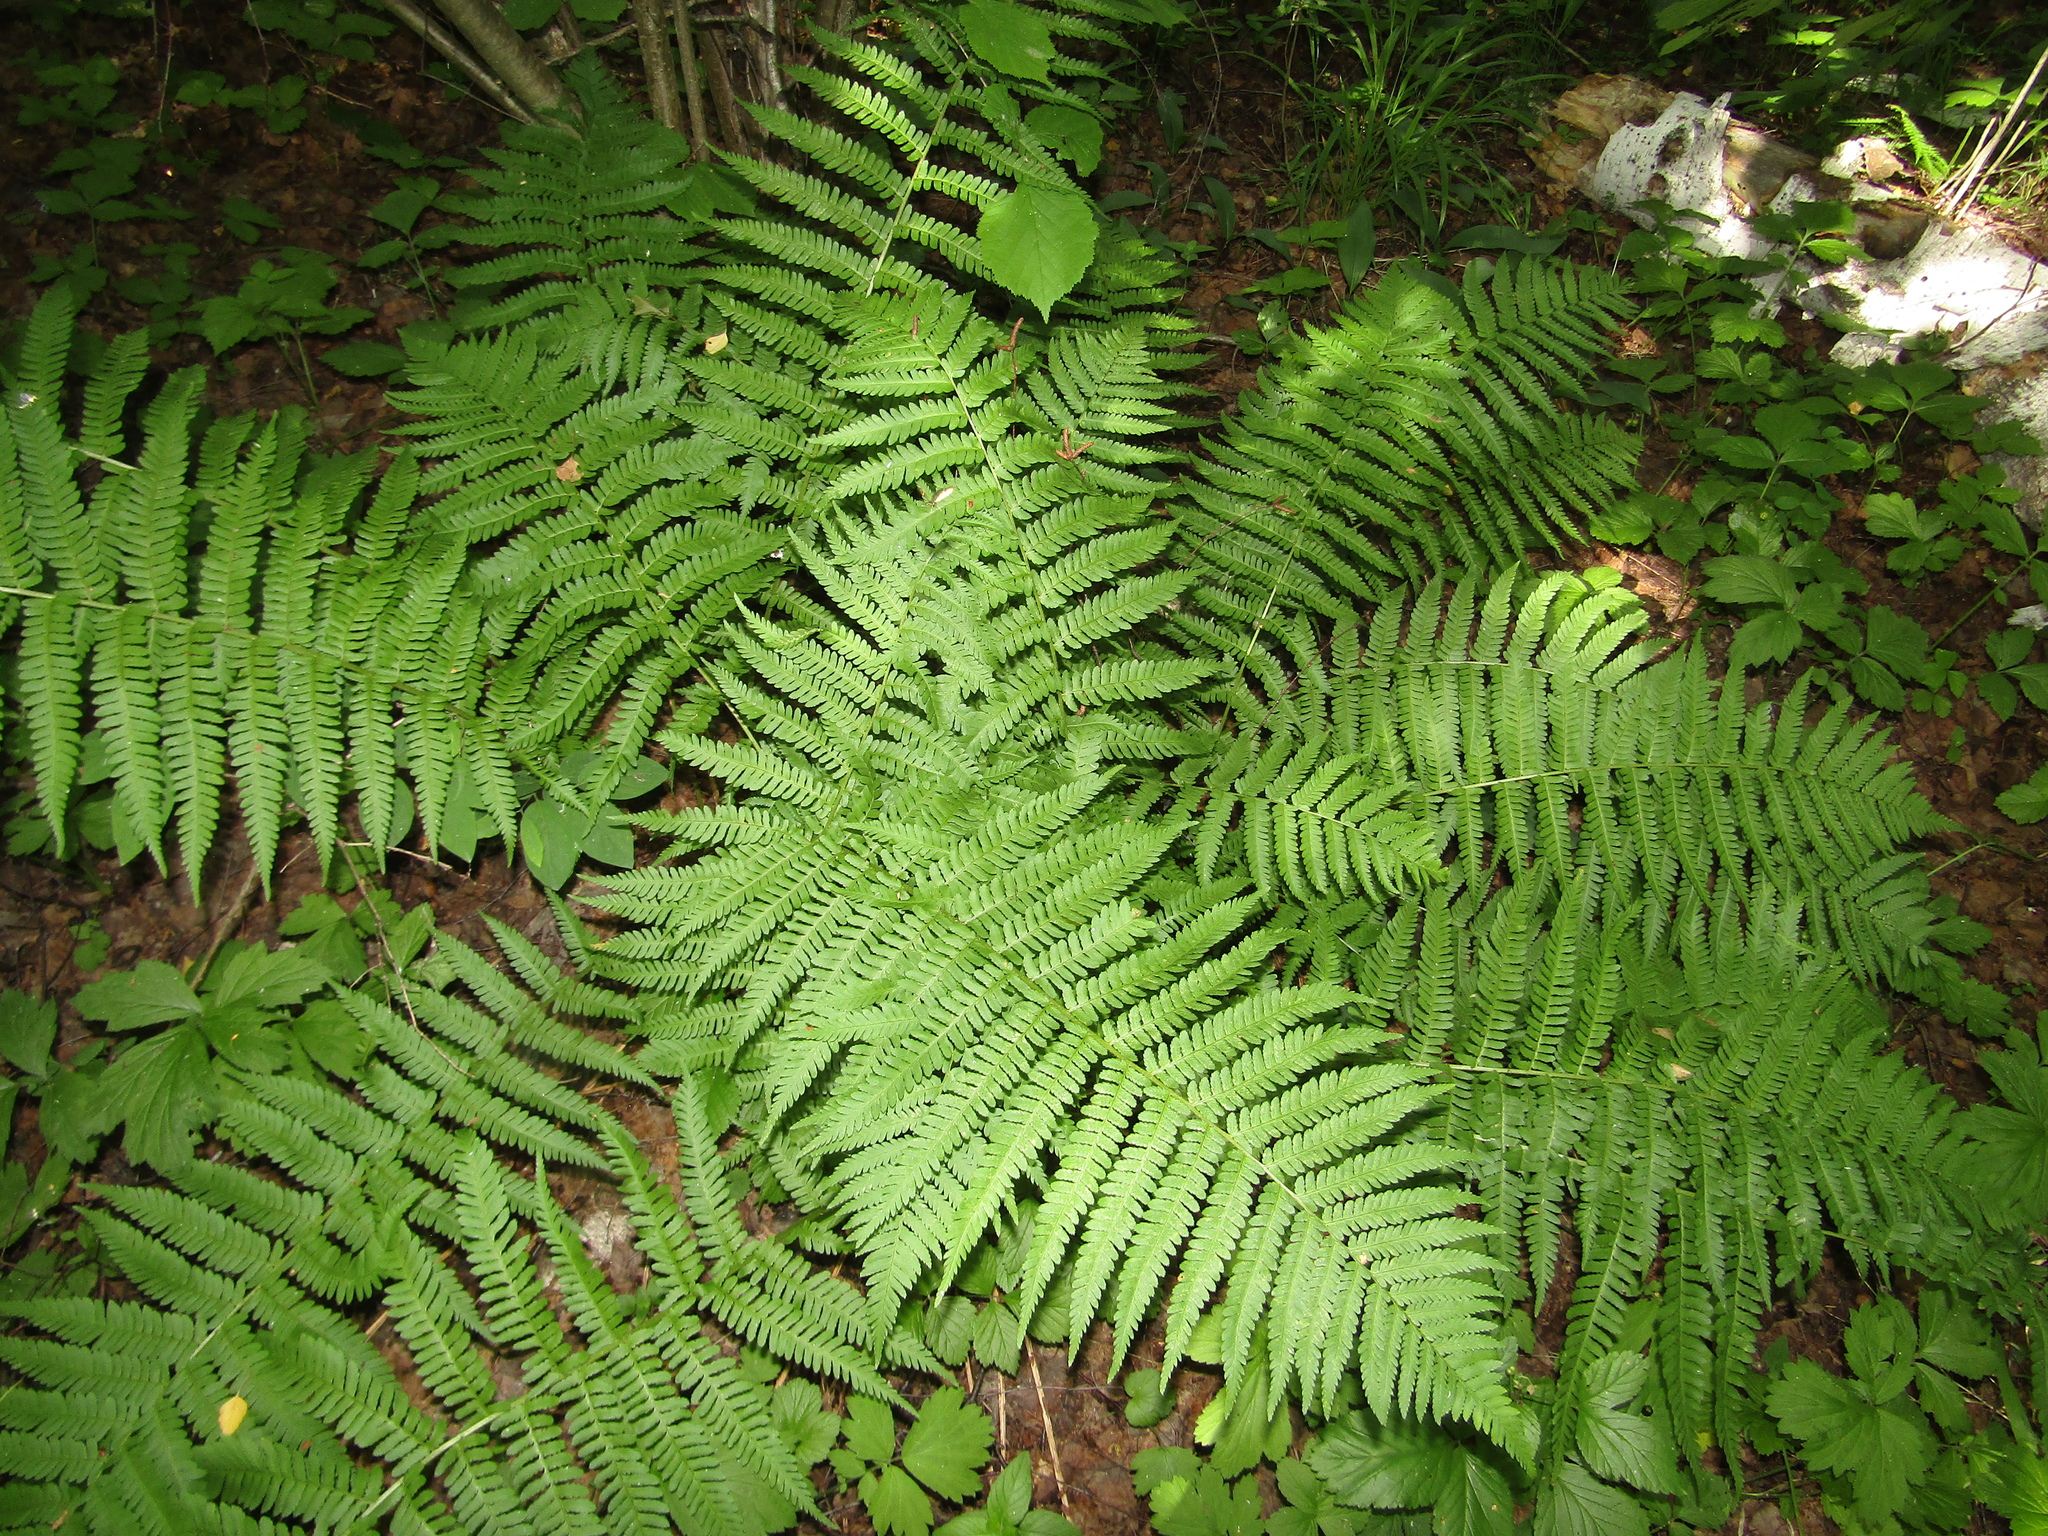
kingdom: Plantae
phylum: Tracheophyta
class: Polypodiopsida
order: Polypodiales
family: Dryopteridaceae
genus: Dryopteris
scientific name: Dryopteris filix-mas
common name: Male fern
